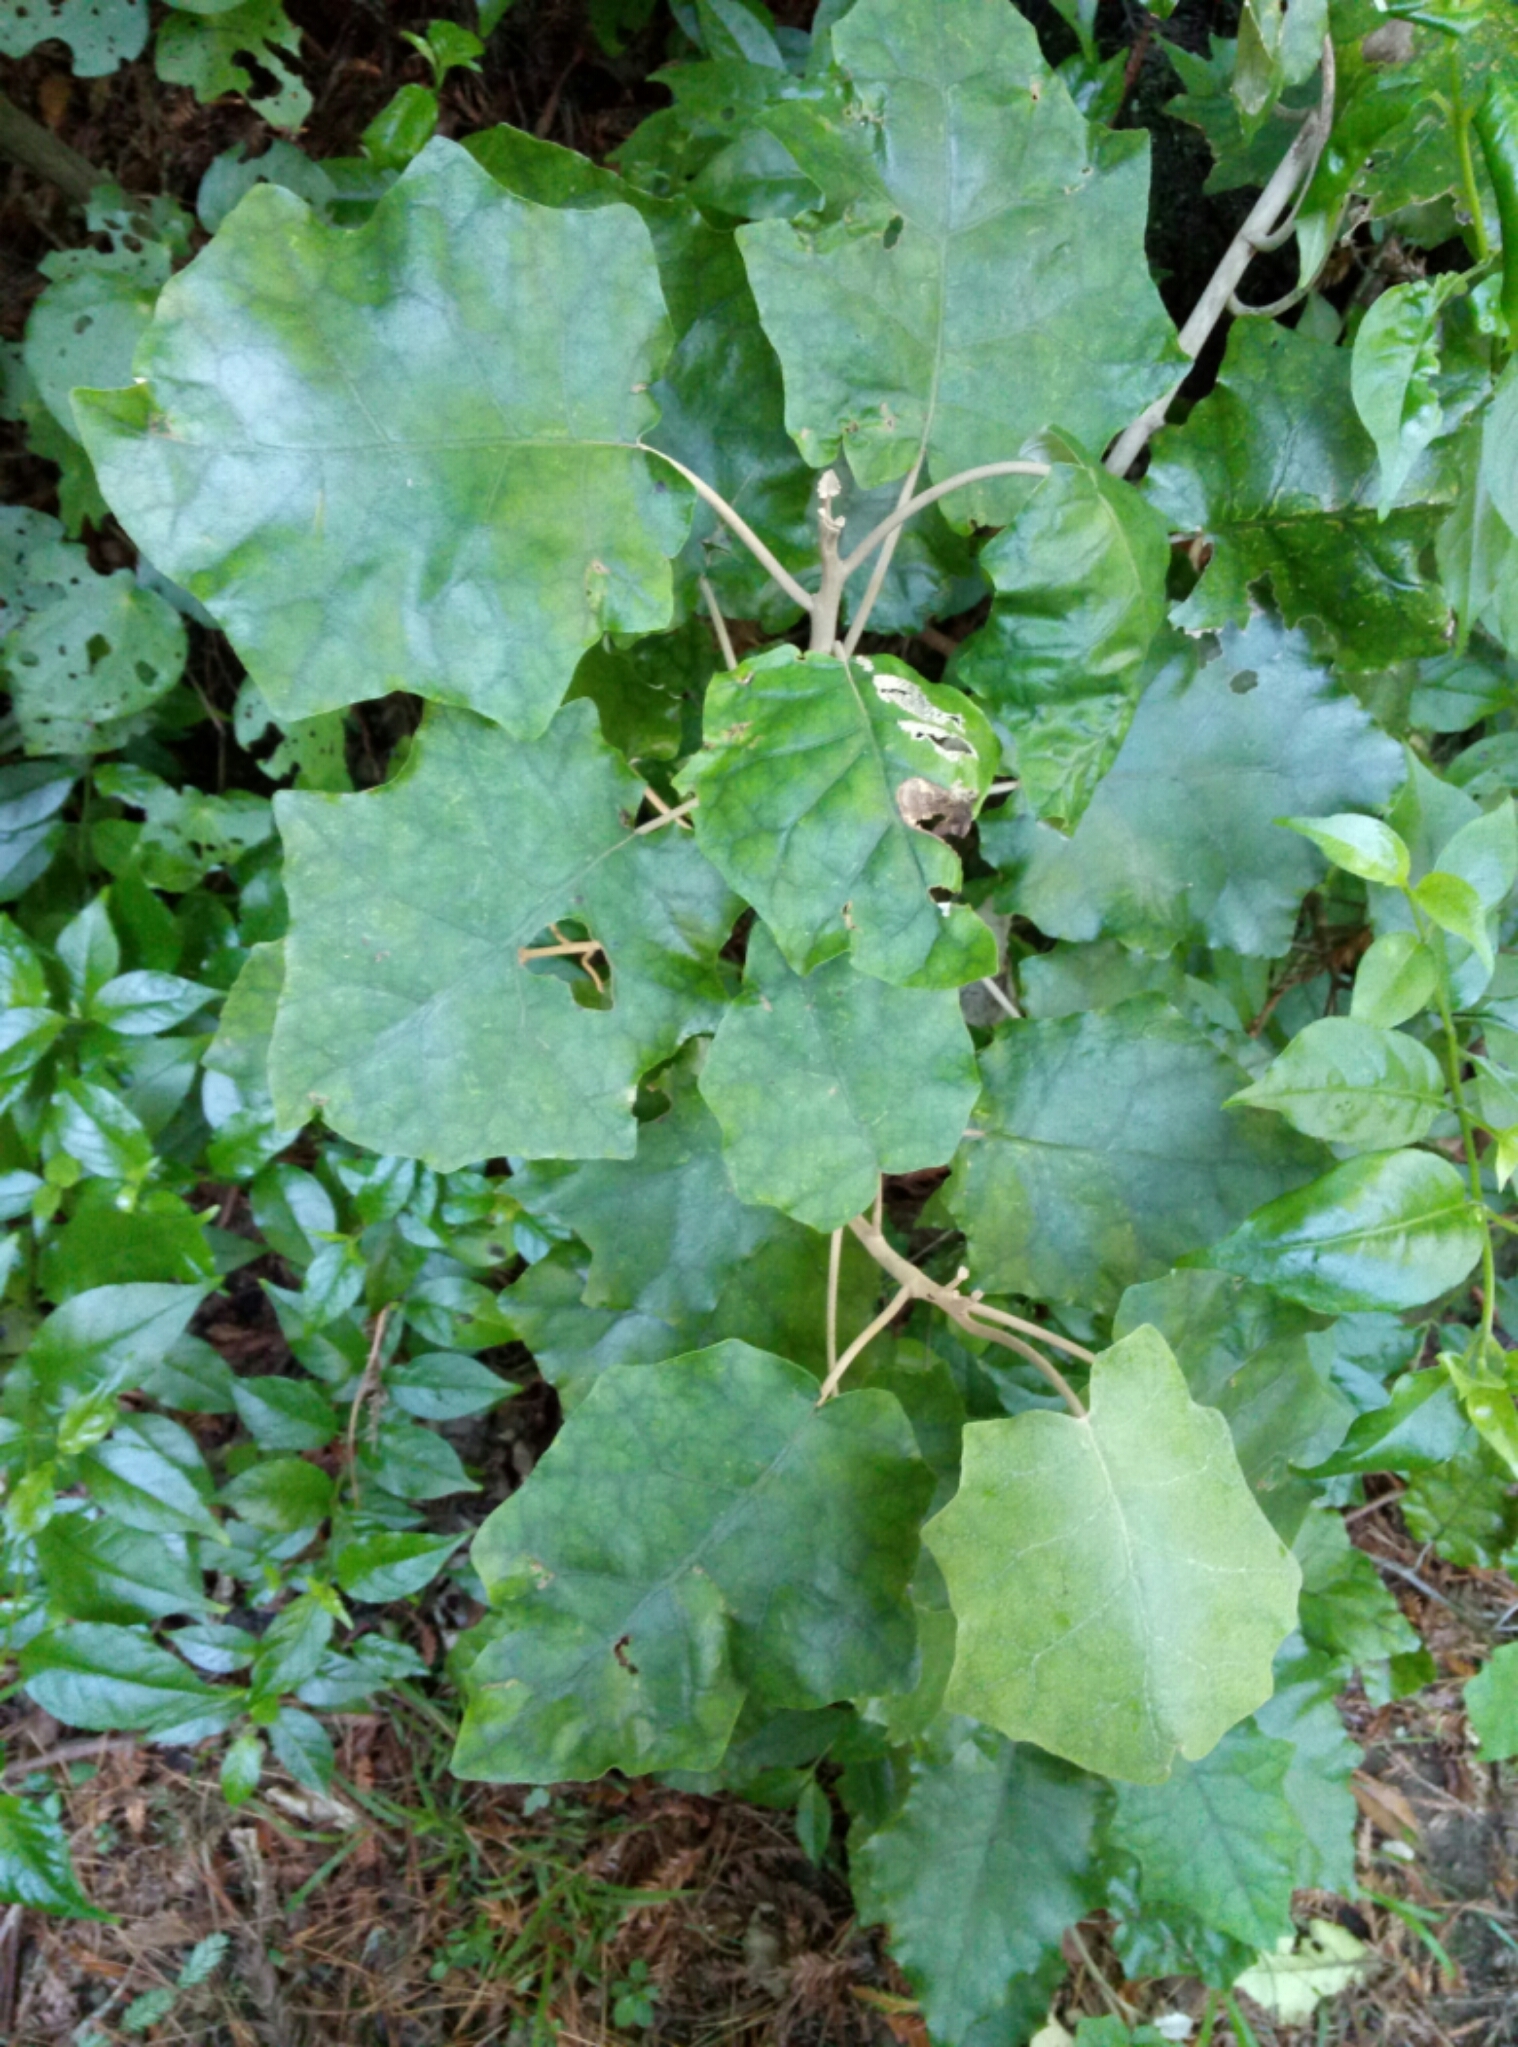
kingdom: Plantae
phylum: Tracheophyta
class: Magnoliopsida
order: Asterales
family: Asteraceae
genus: Brachyglottis
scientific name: Brachyglottis repanda
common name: Hedge ragwort
